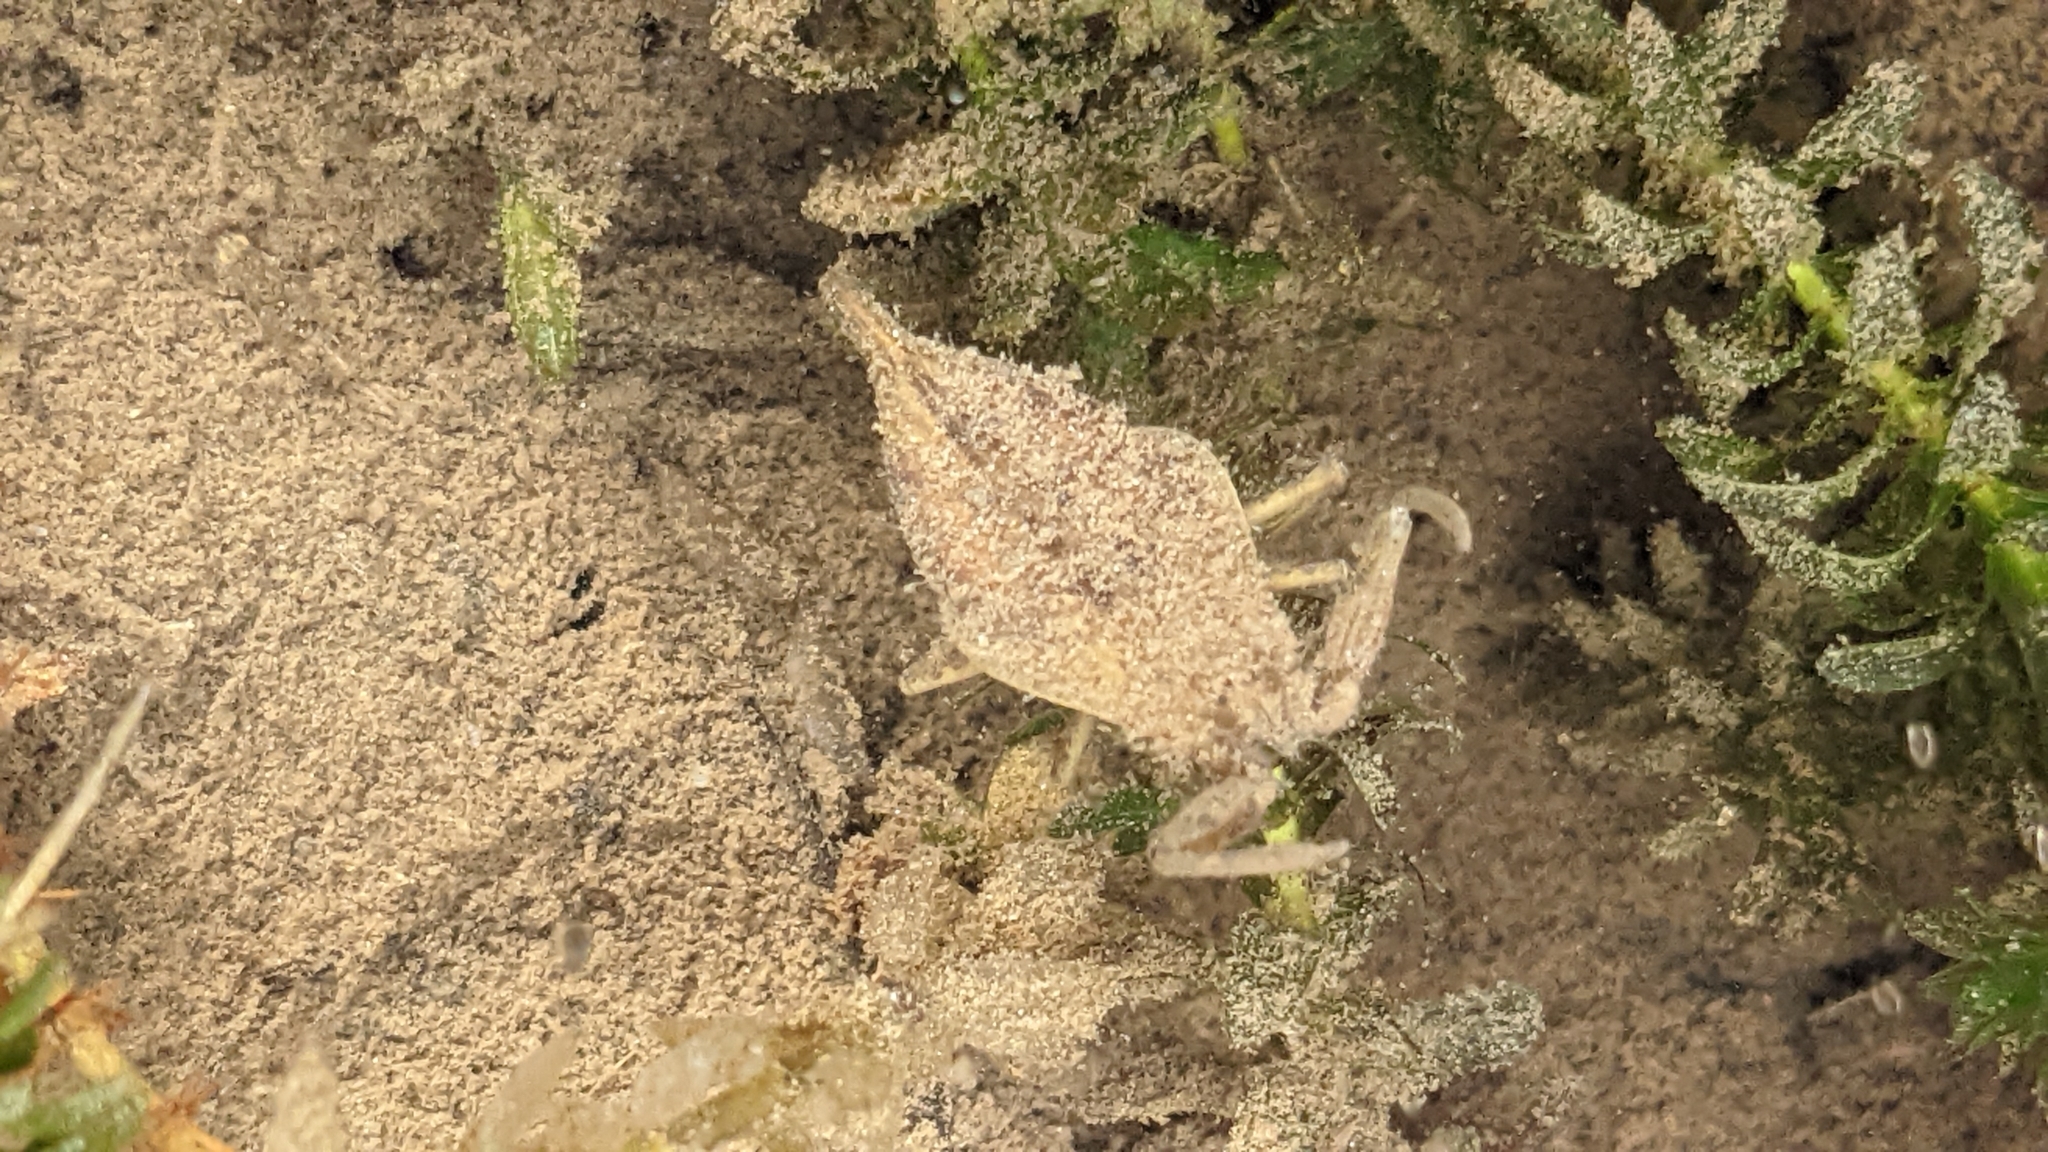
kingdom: Animalia
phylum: Arthropoda
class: Insecta
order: Hemiptera
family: Nepidae
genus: Nepa
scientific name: Nepa cinerea
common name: Water scorpion
